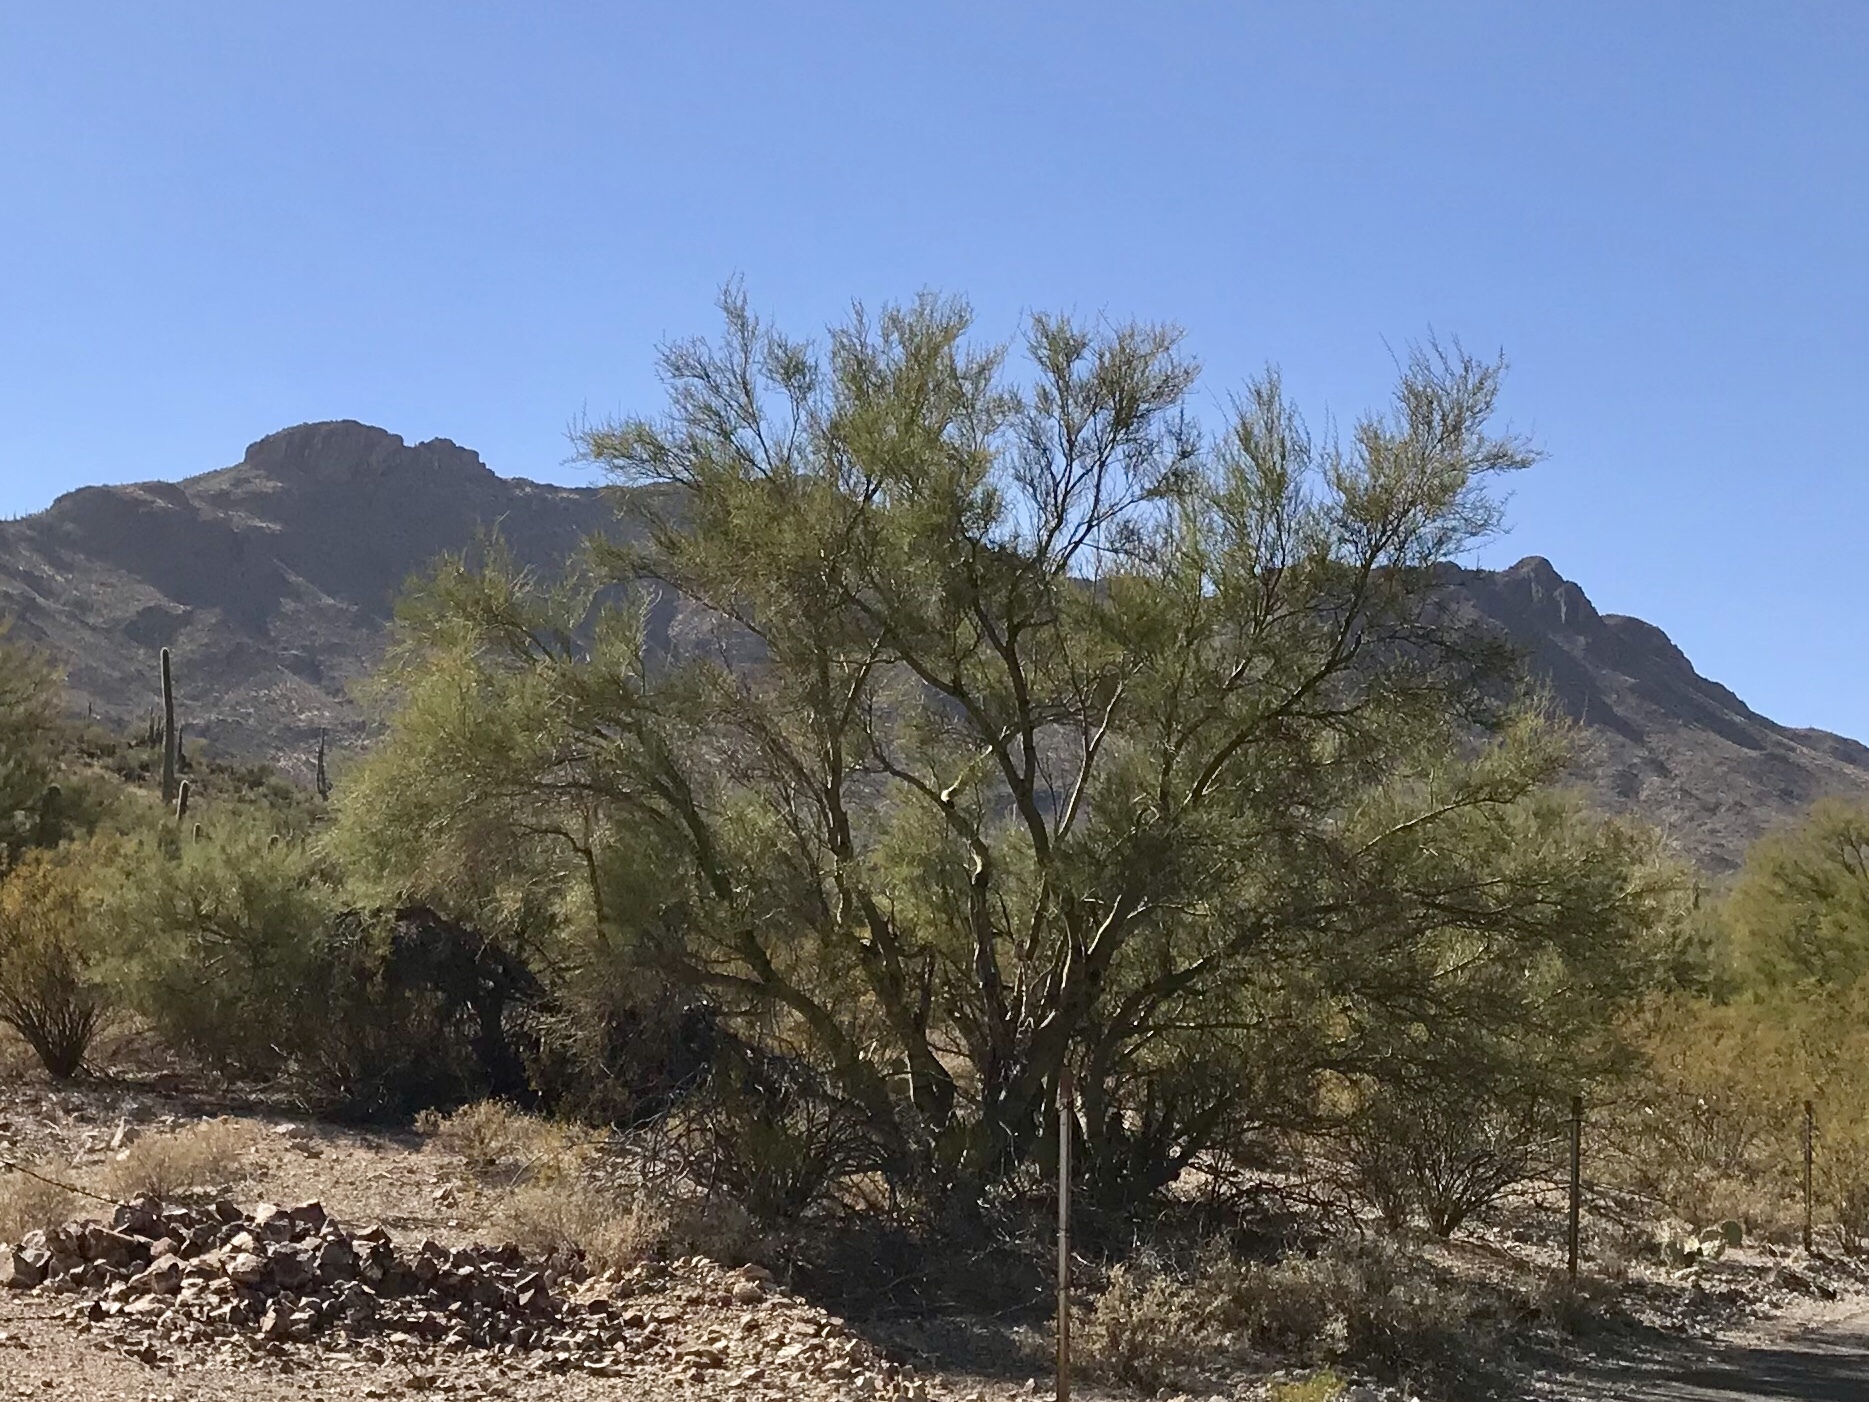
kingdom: Plantae
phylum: Tracheophyta
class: Magnoliopsida
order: Fabales
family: Fabaceae
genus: Parkinsonia
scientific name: Parkinsonia microphylla
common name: Yellow paloverde
